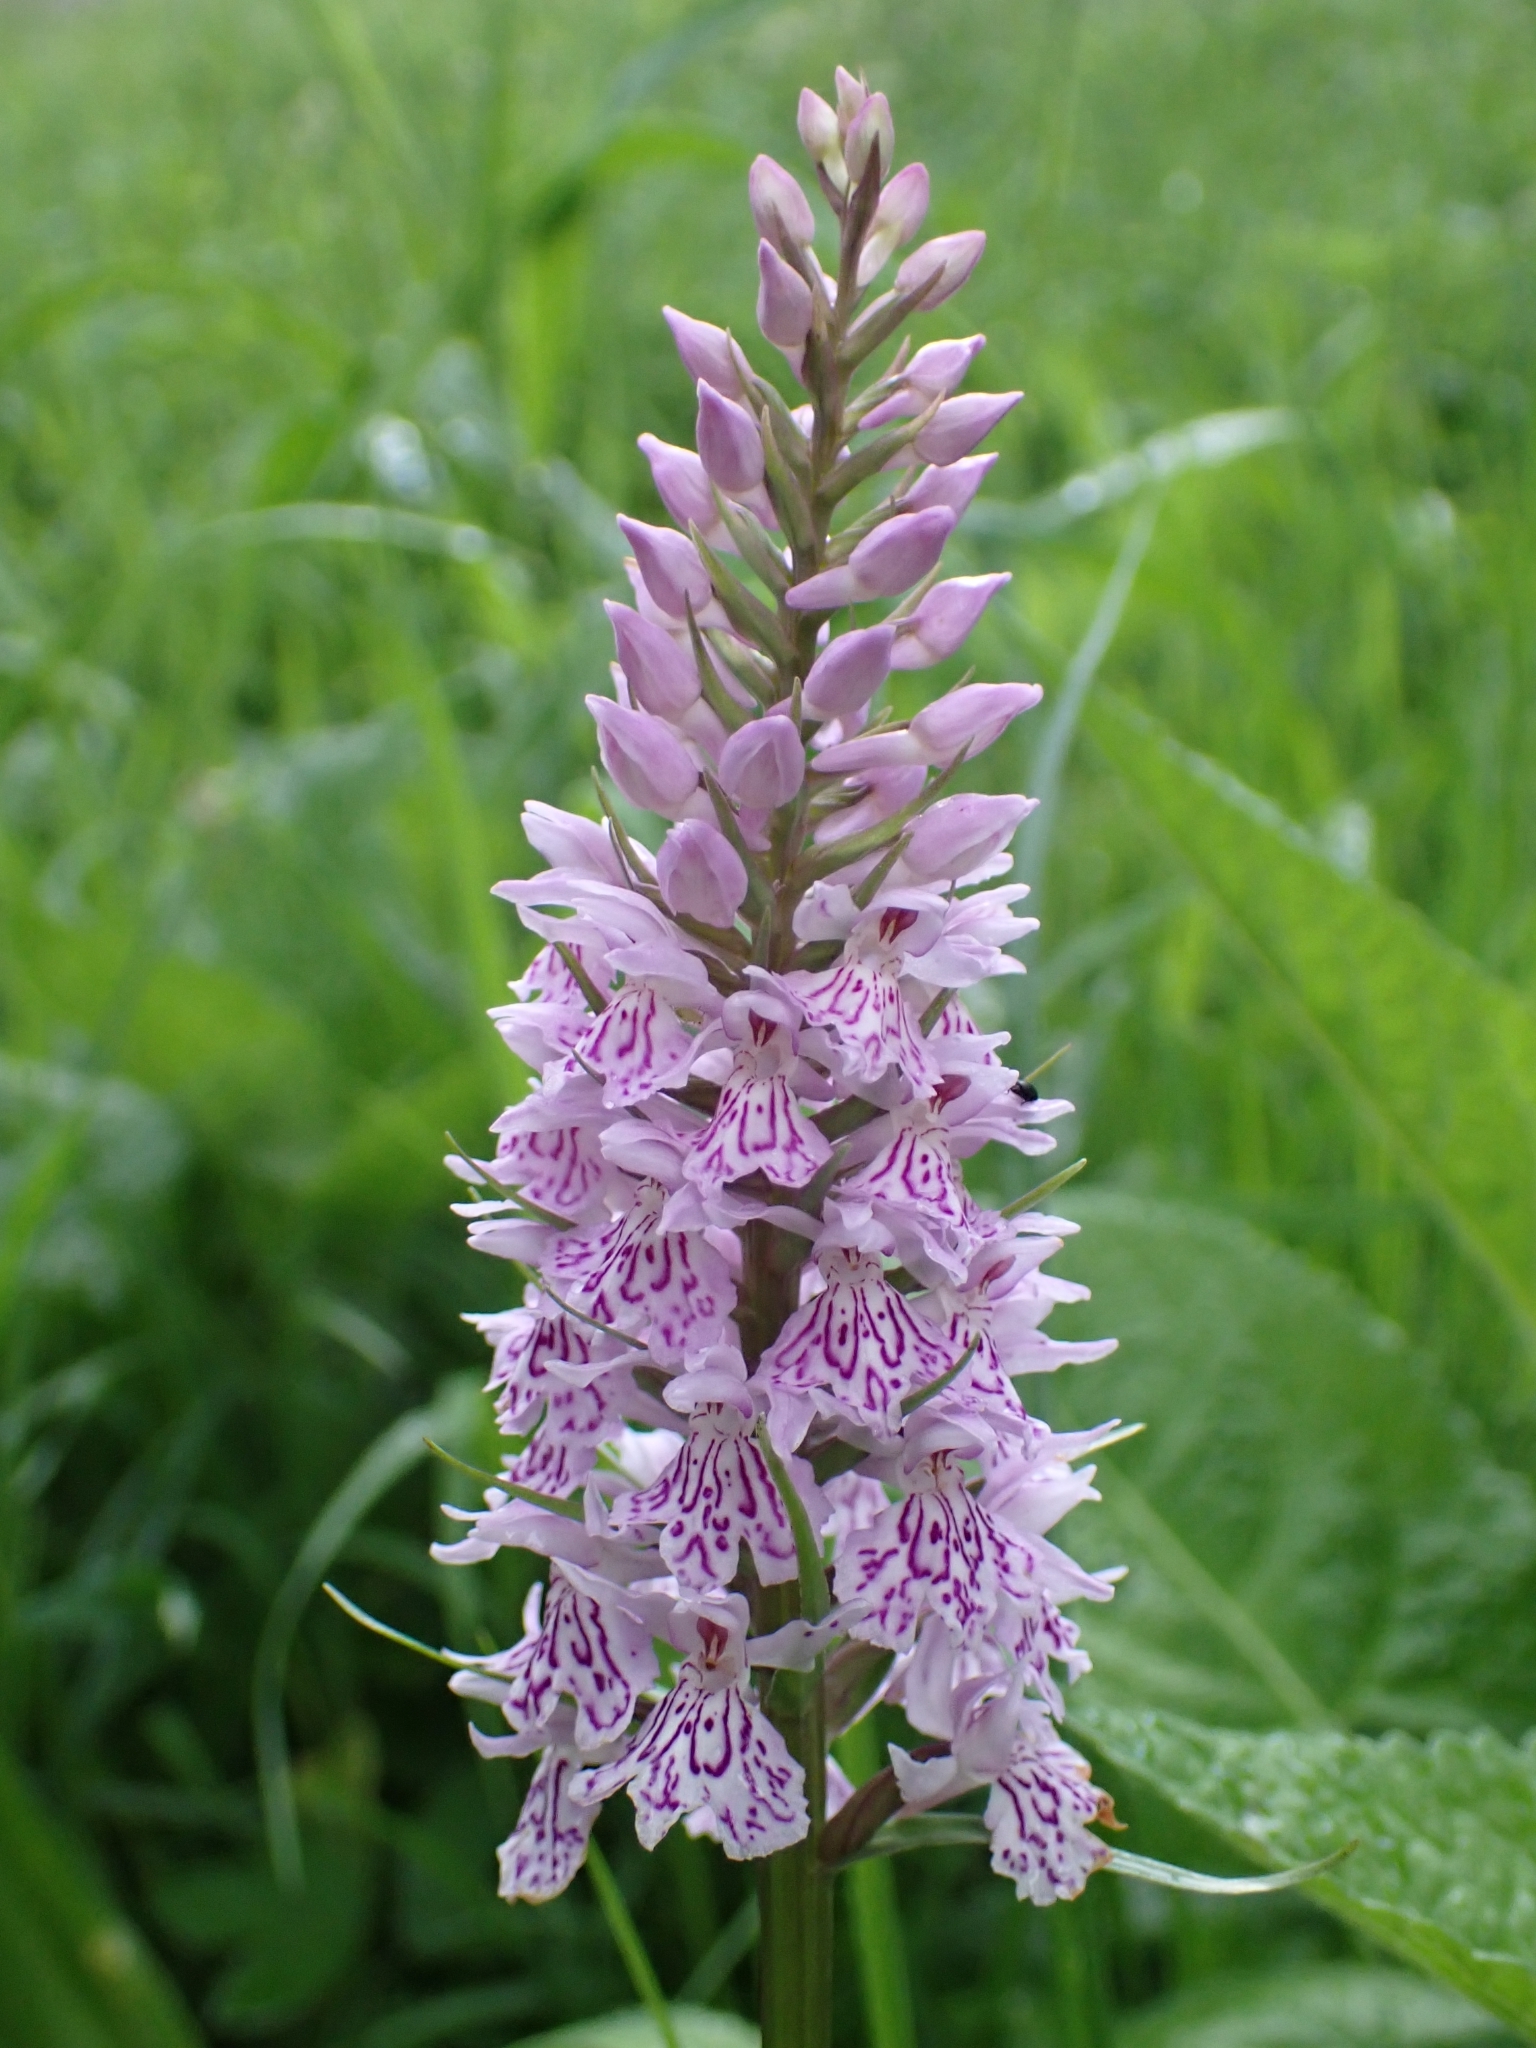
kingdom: Plantae
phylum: Tracheophyta
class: Liliopsida
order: Asparagales
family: Orchidaceae
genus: Dactylorhiza
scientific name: Dactylorhiza maculata
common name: Heath spotted-orchid
